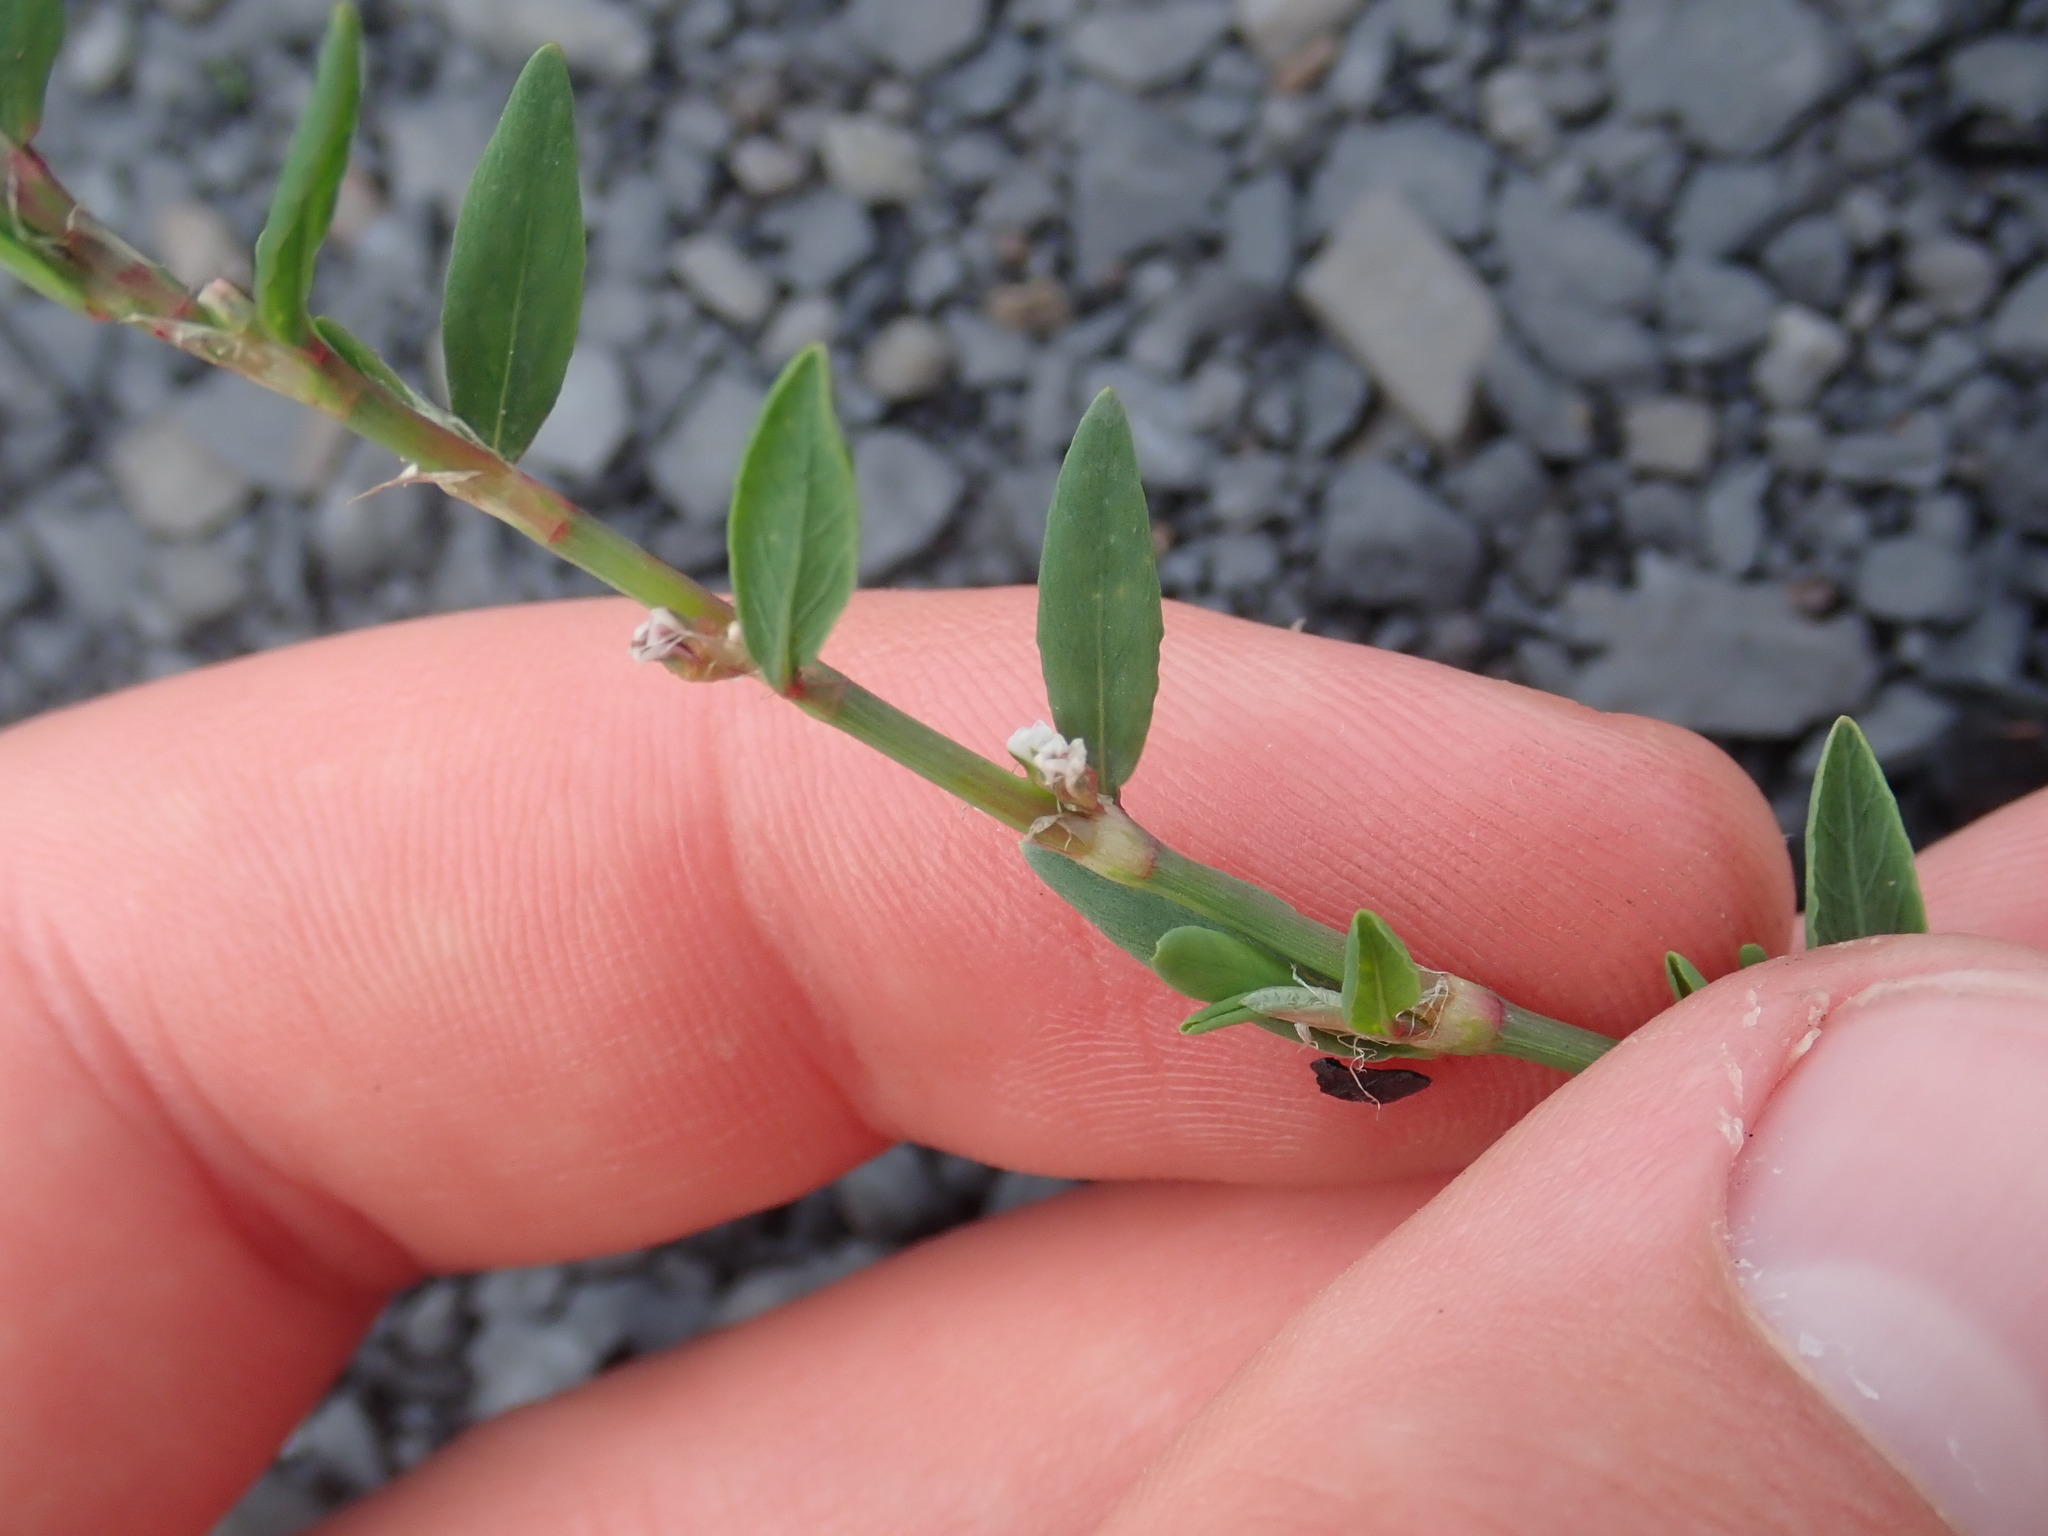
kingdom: Plantae
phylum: Tracheophyta
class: Magnoliopsida
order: Caryophyllales
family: Polygonaceae
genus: Polygonum
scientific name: Polygonum aviculare
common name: Prostrate knotweed
